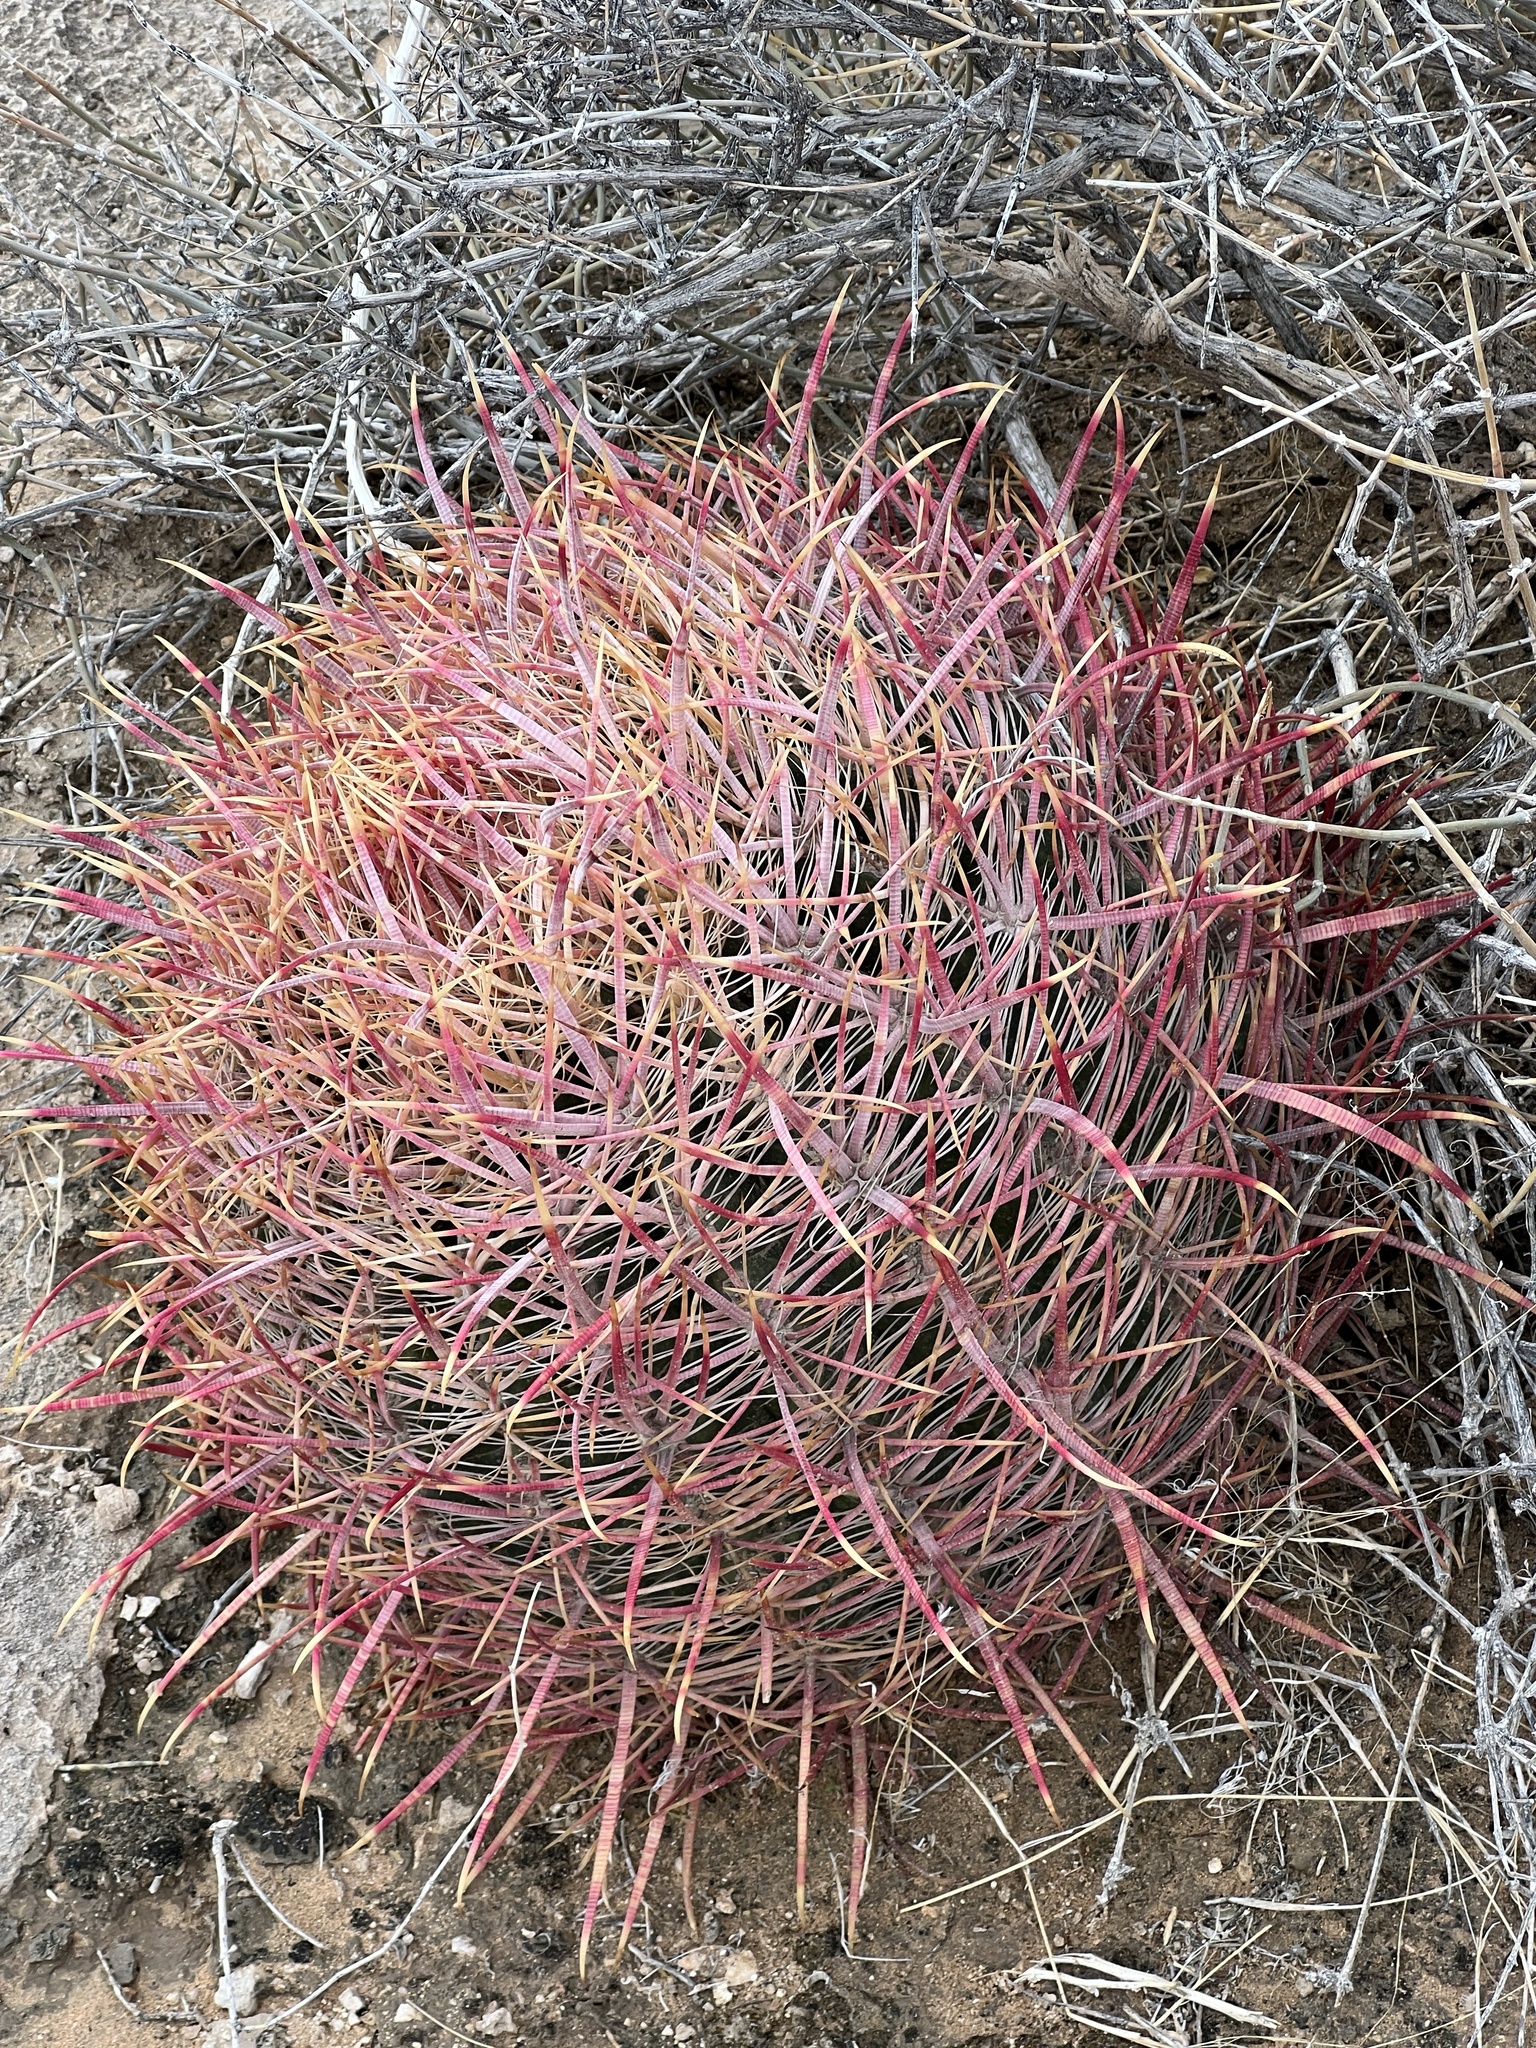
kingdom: Plantae
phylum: Tracheophyta
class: Magnoliopsida
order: Caryophyllales
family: Cactaceae
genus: Ferocactus
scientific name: Ferocactus cylindraceus
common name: California barrel cactus
